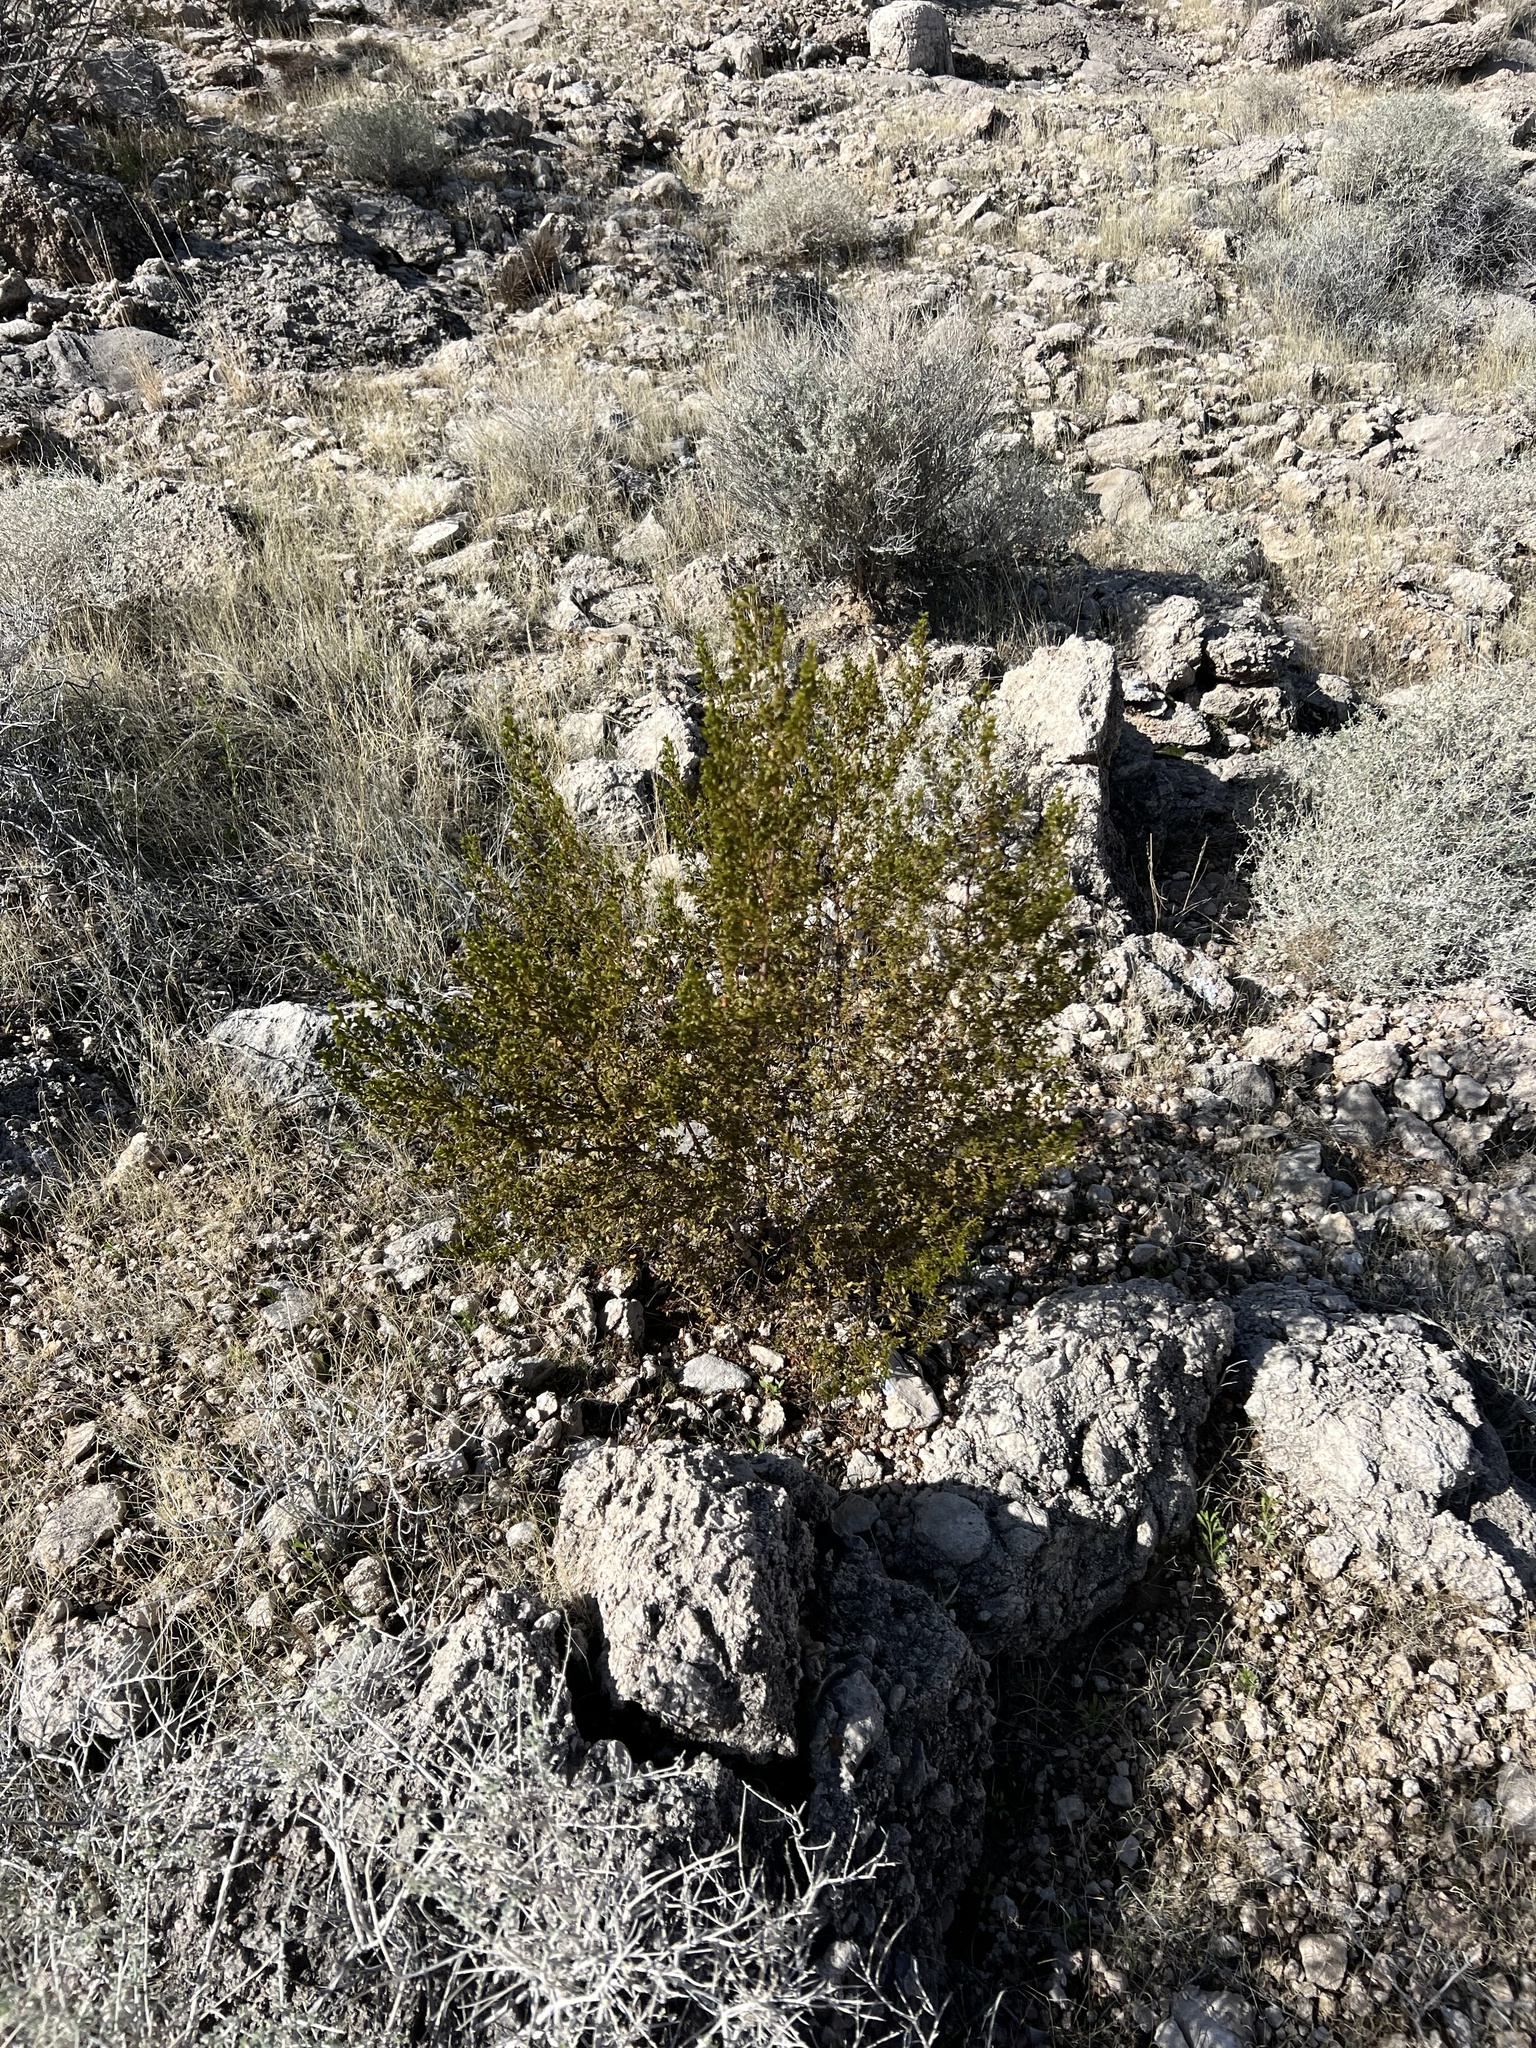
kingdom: Plantae
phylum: Tracheophyta
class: Magnoliopsida
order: Zygophyllales
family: Zygophyllaceae
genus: Larrea
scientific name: Larrea tridentata
